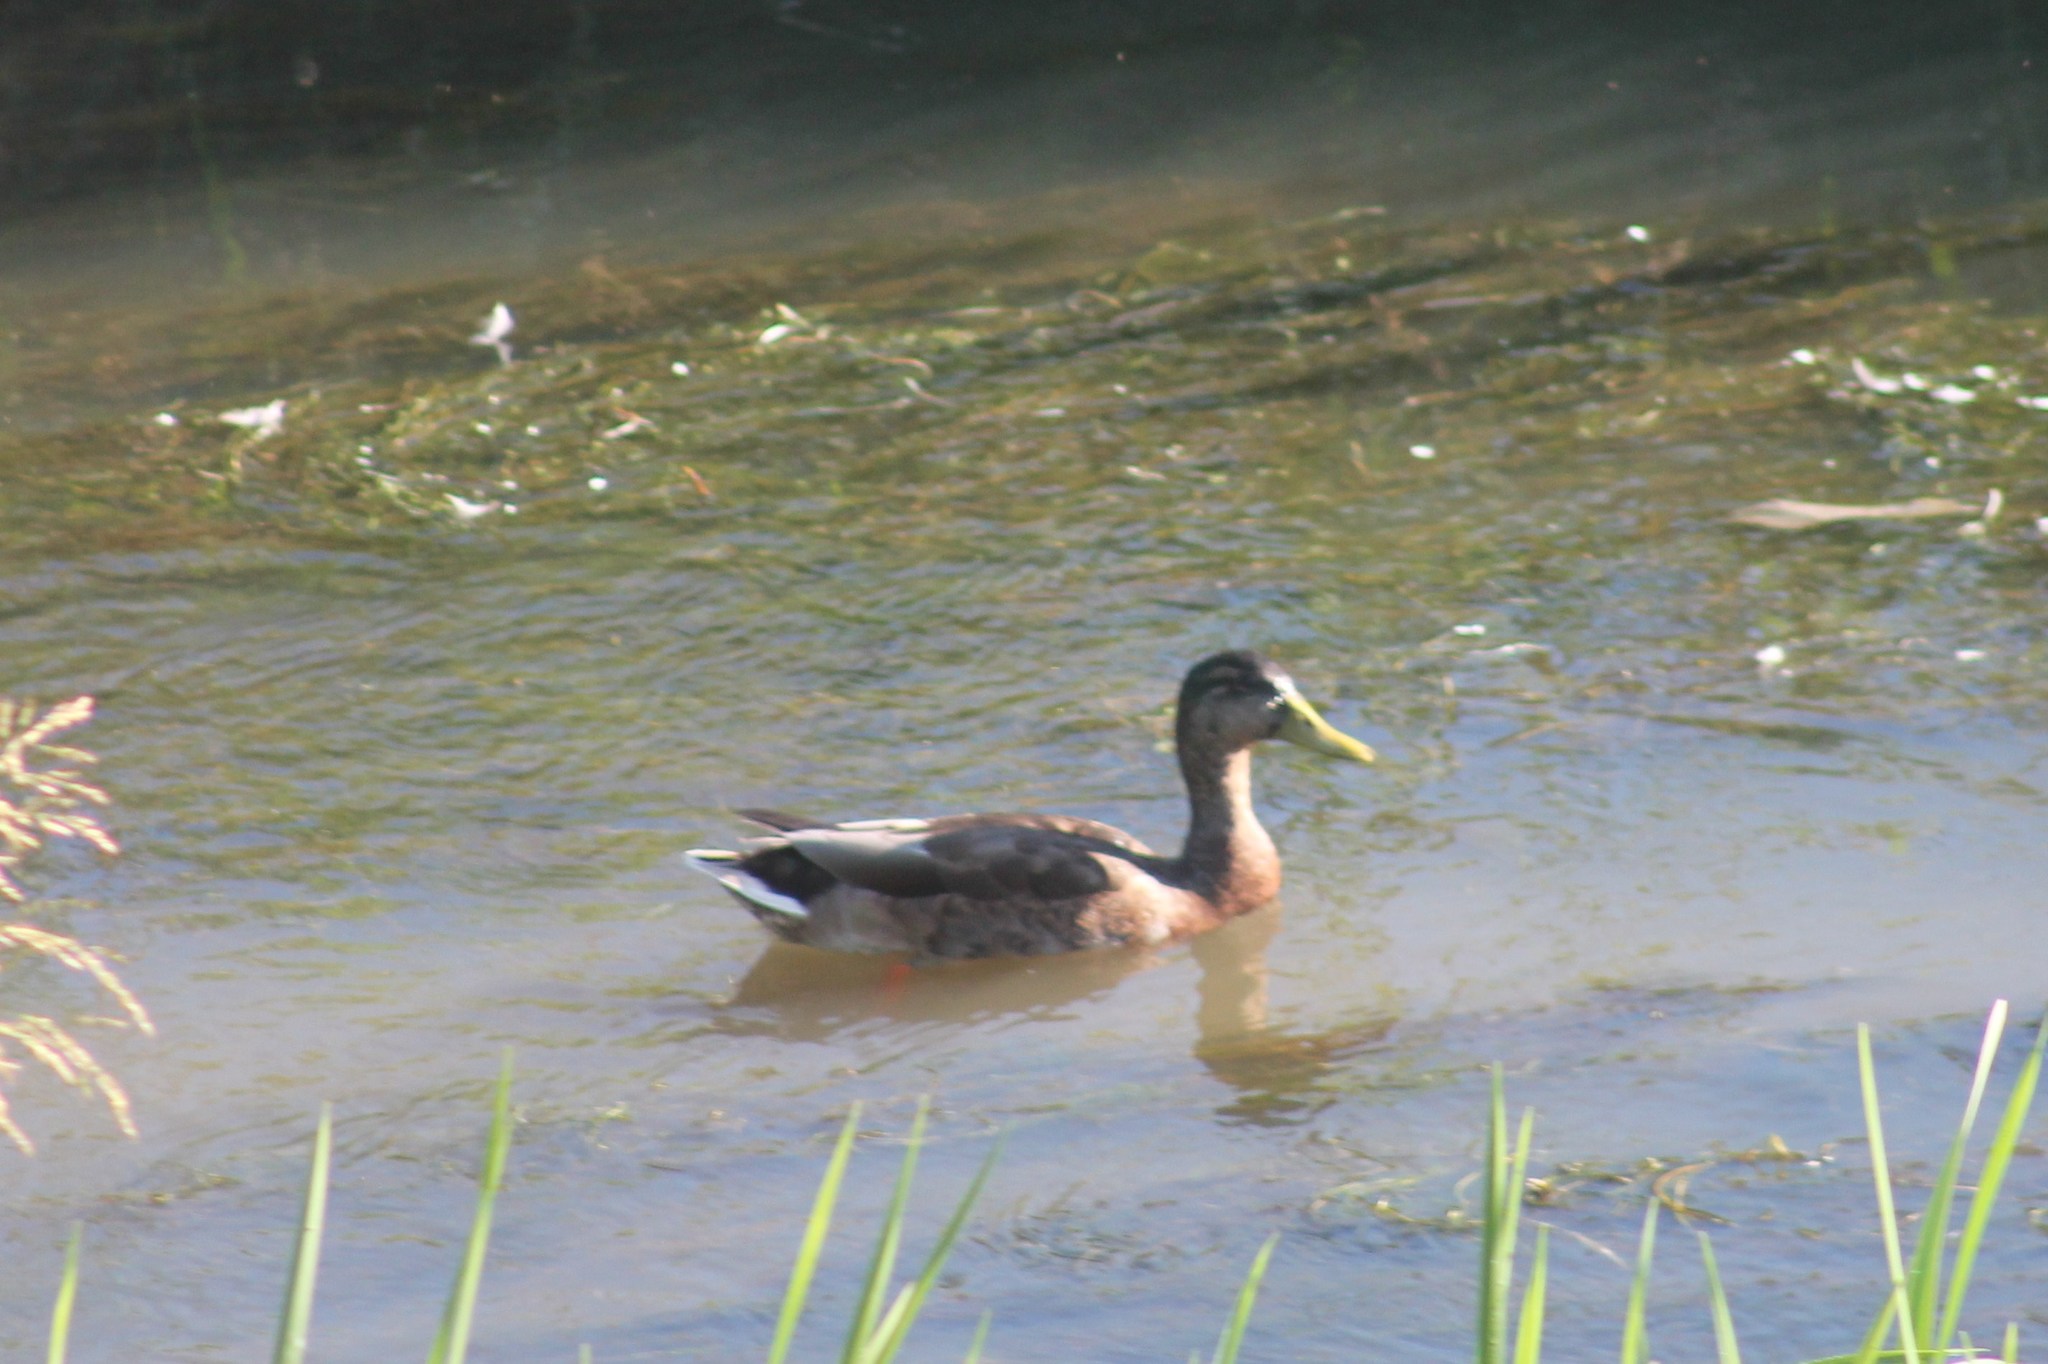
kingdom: Animalia
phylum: Chordata
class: Aves
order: Anseriformes
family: Anatidae
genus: Anas
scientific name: Anas platyrhynchos
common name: Mallard
